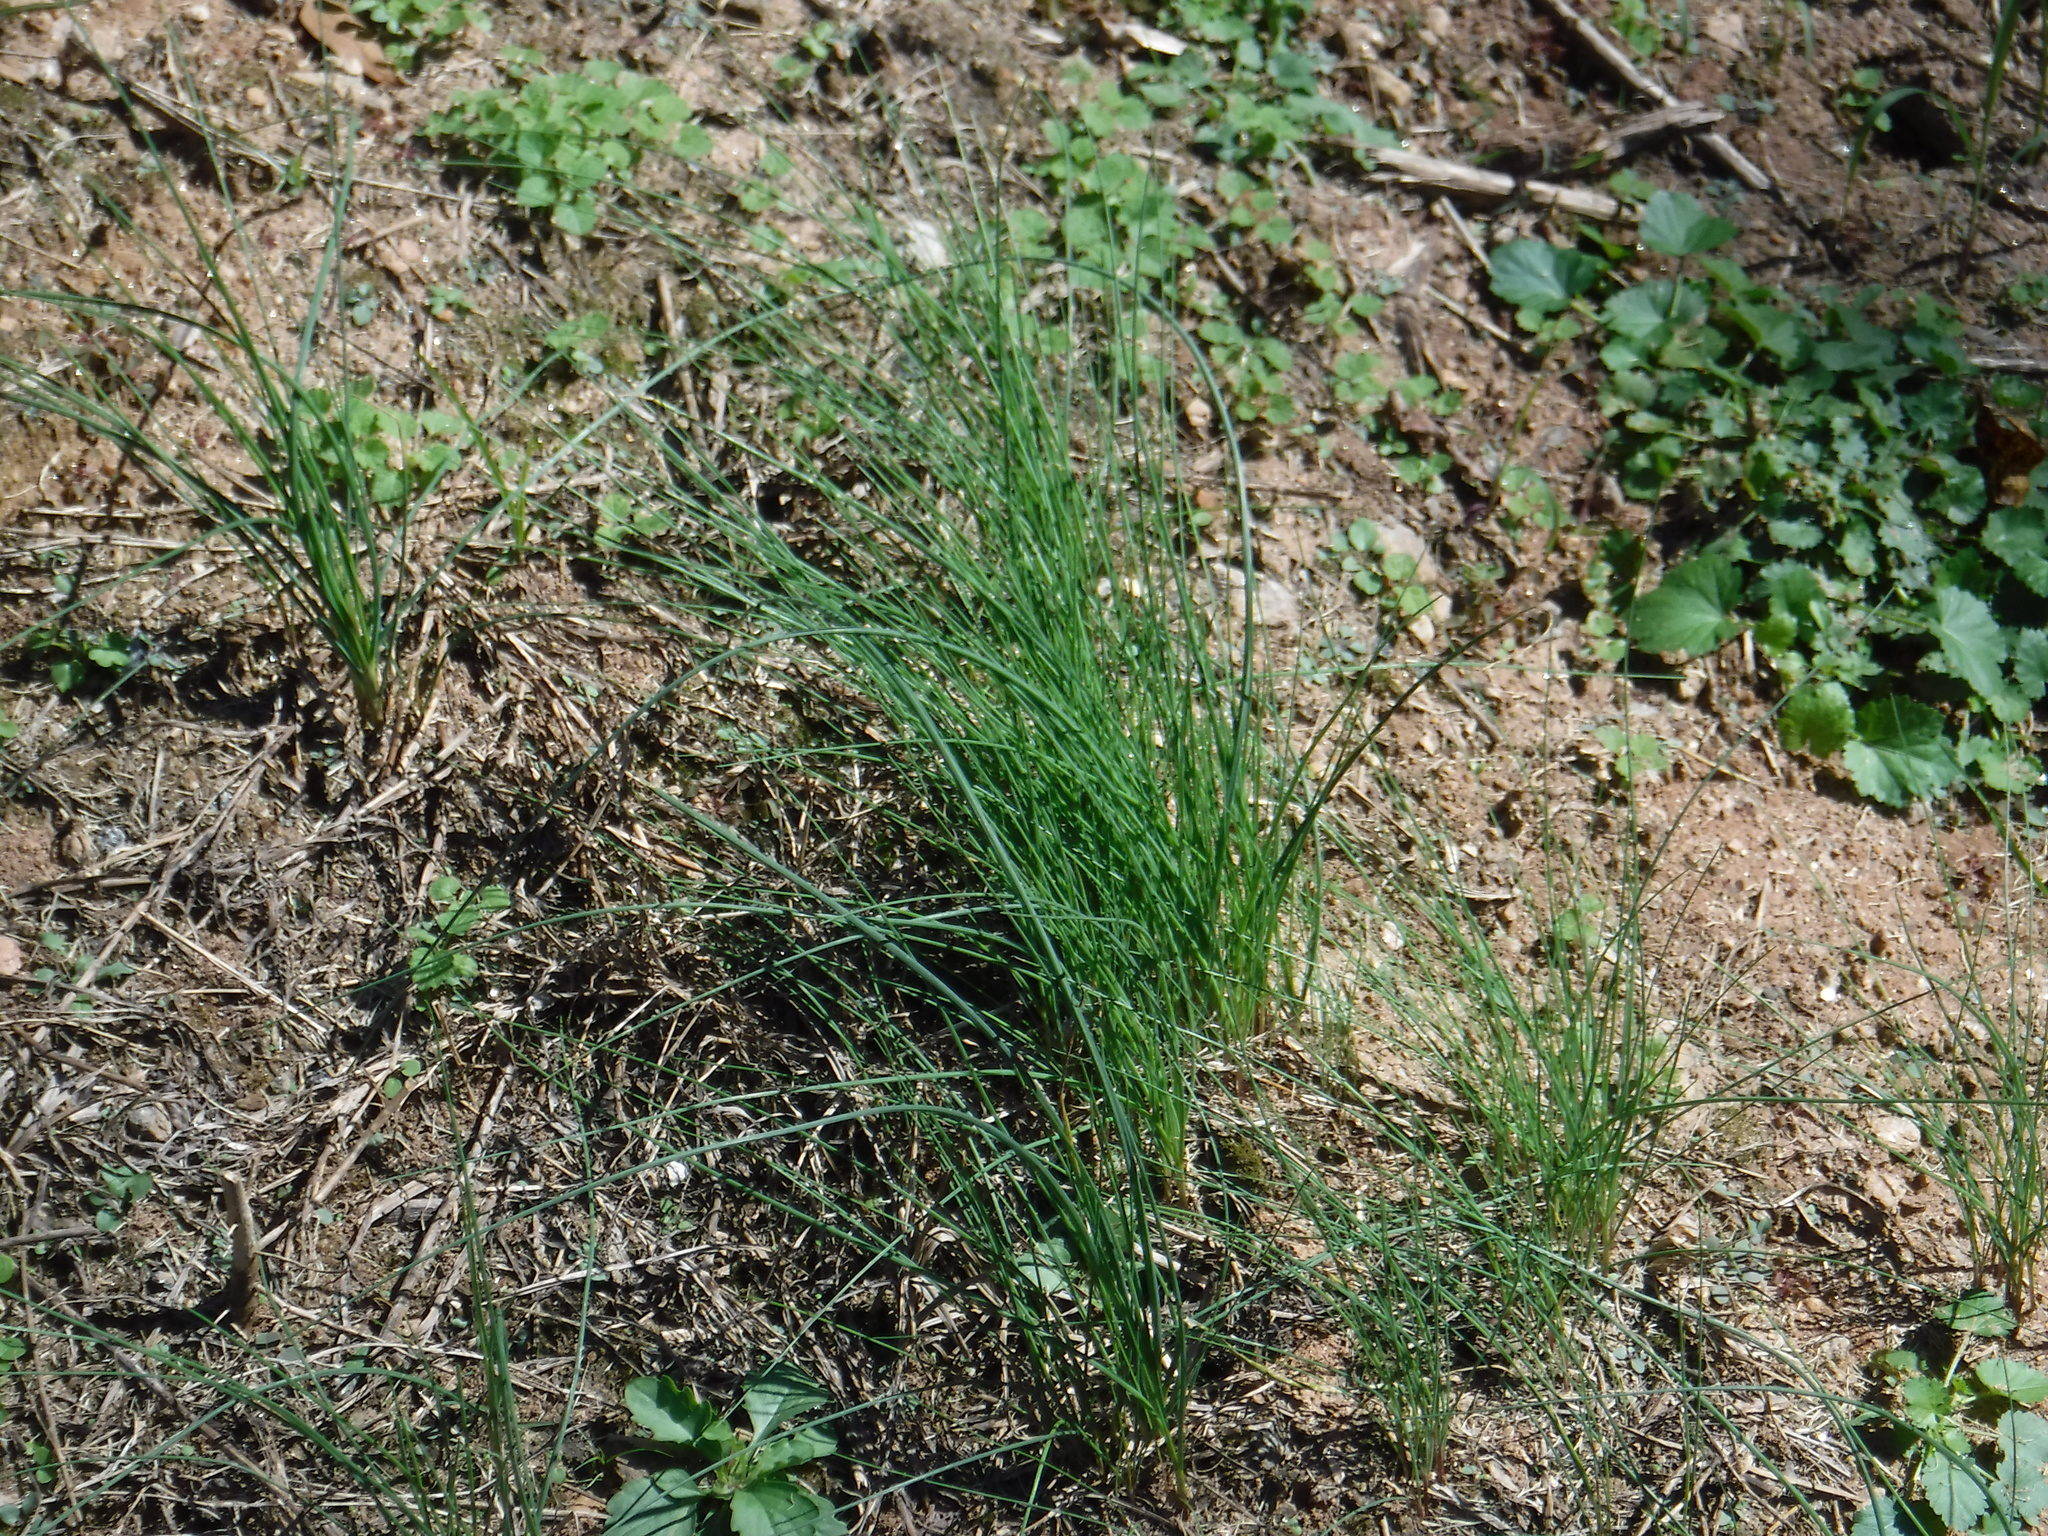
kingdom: Plantae
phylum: Tracheophyta
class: Liliopsida
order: Asparagales
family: Amaryllidaceae
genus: Allium
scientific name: Allium vineale
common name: Crow garlic
